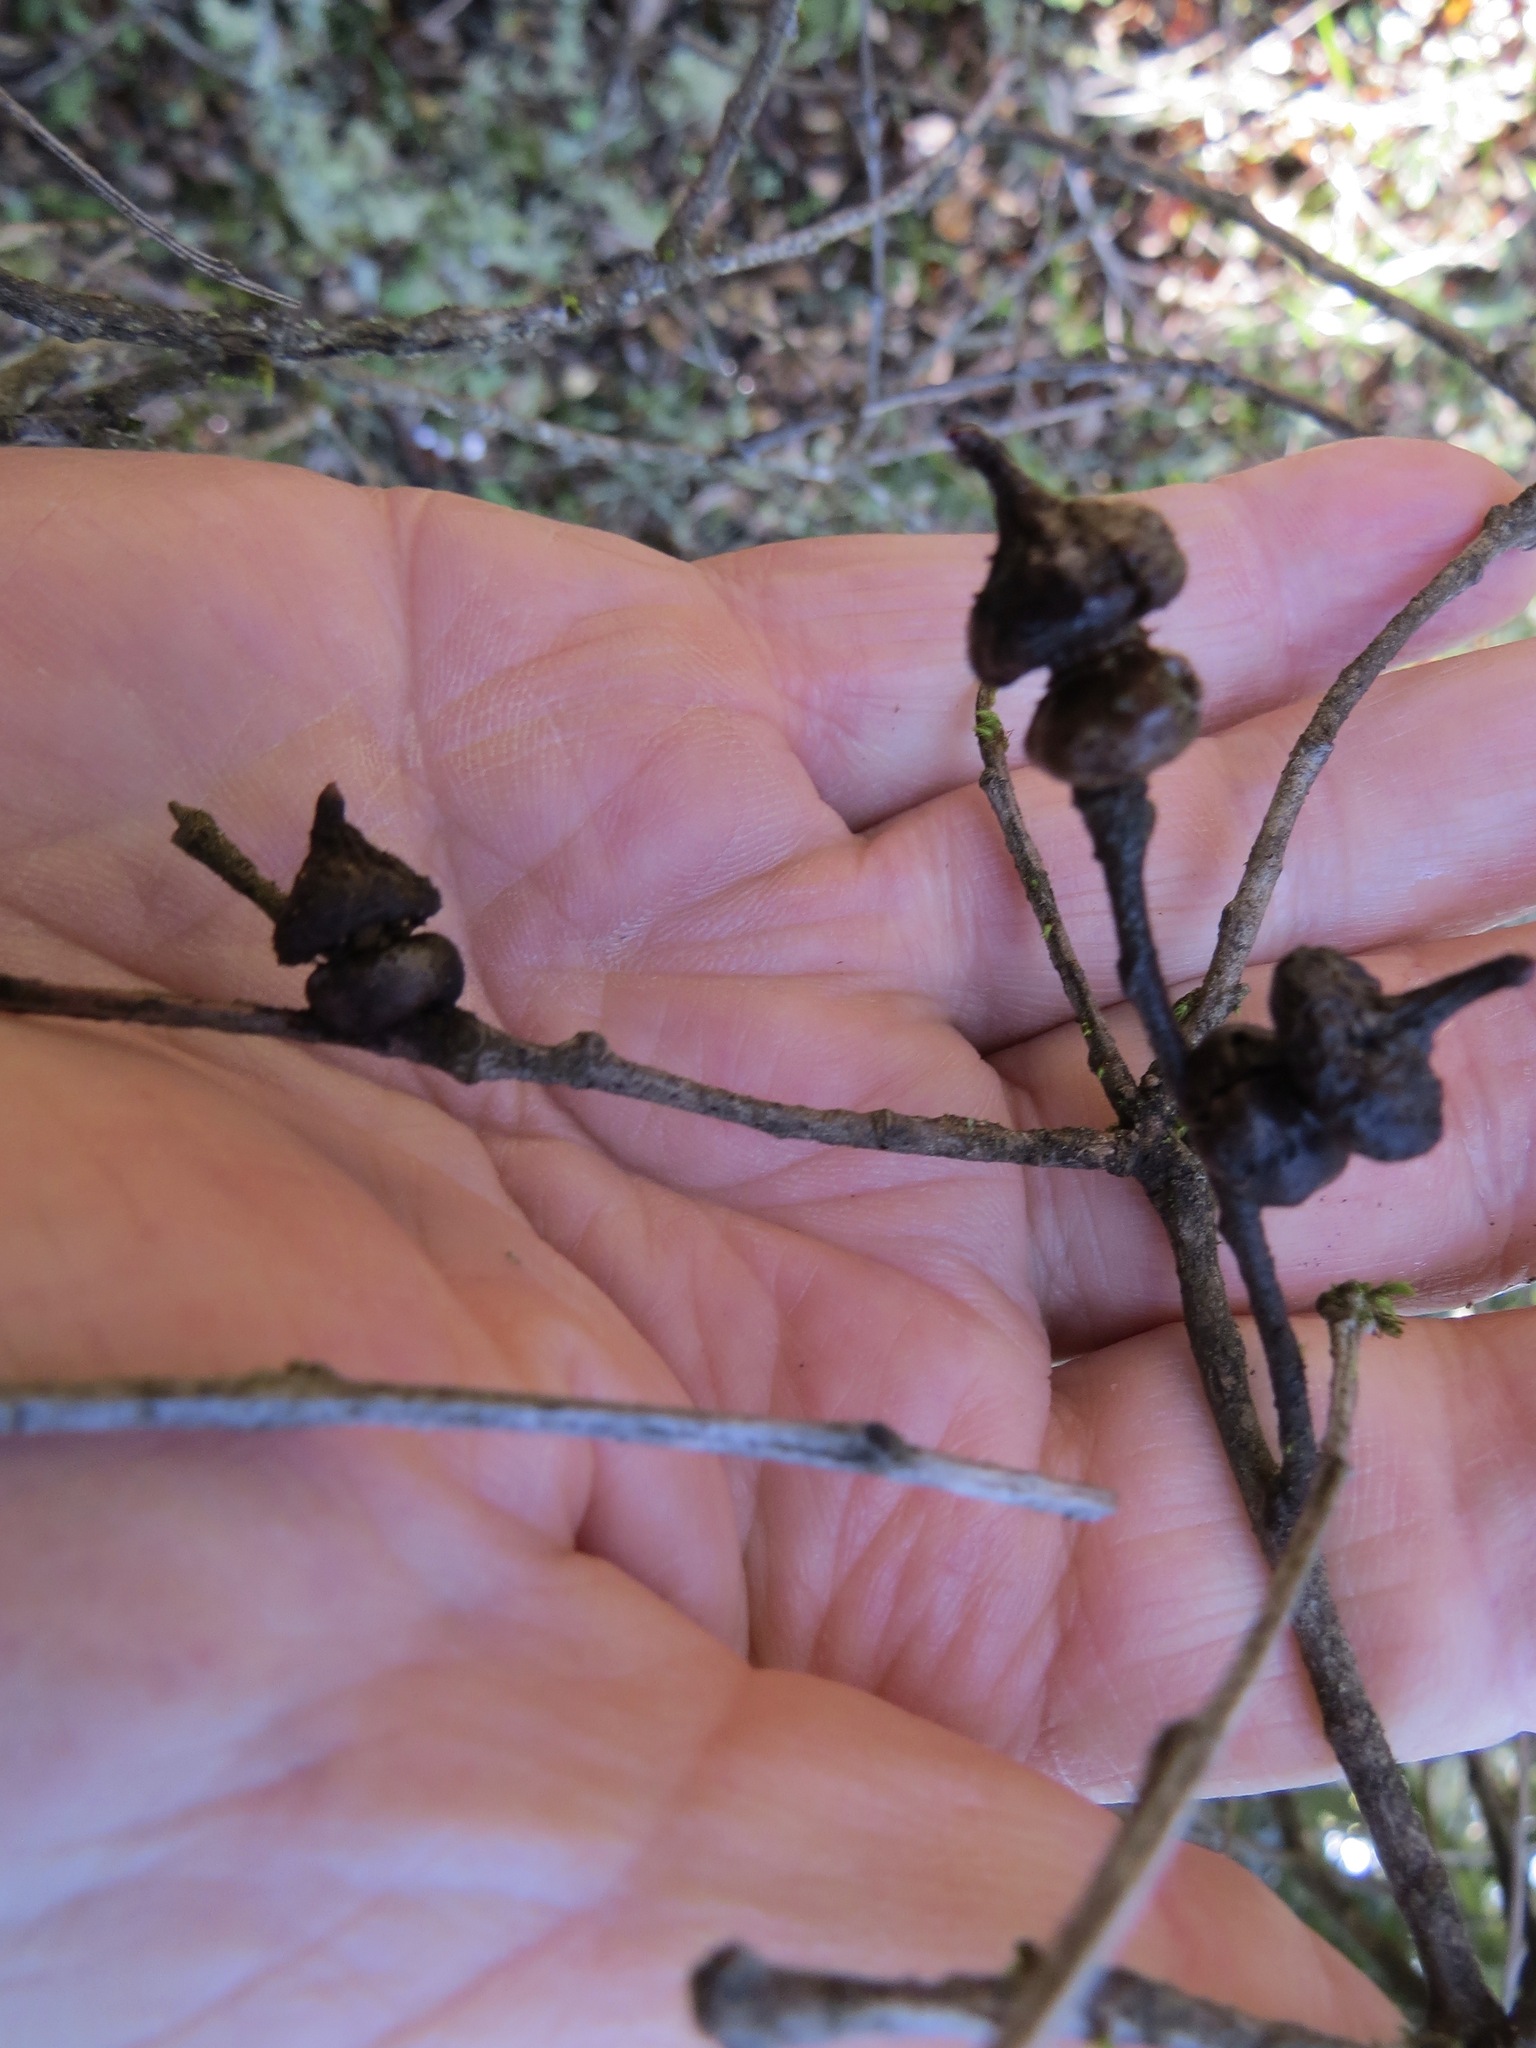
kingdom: Animalia
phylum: Arthropoda
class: Insecta
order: Hymenoptera
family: Cynipidae
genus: Heteroecus
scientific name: Heteroecus
